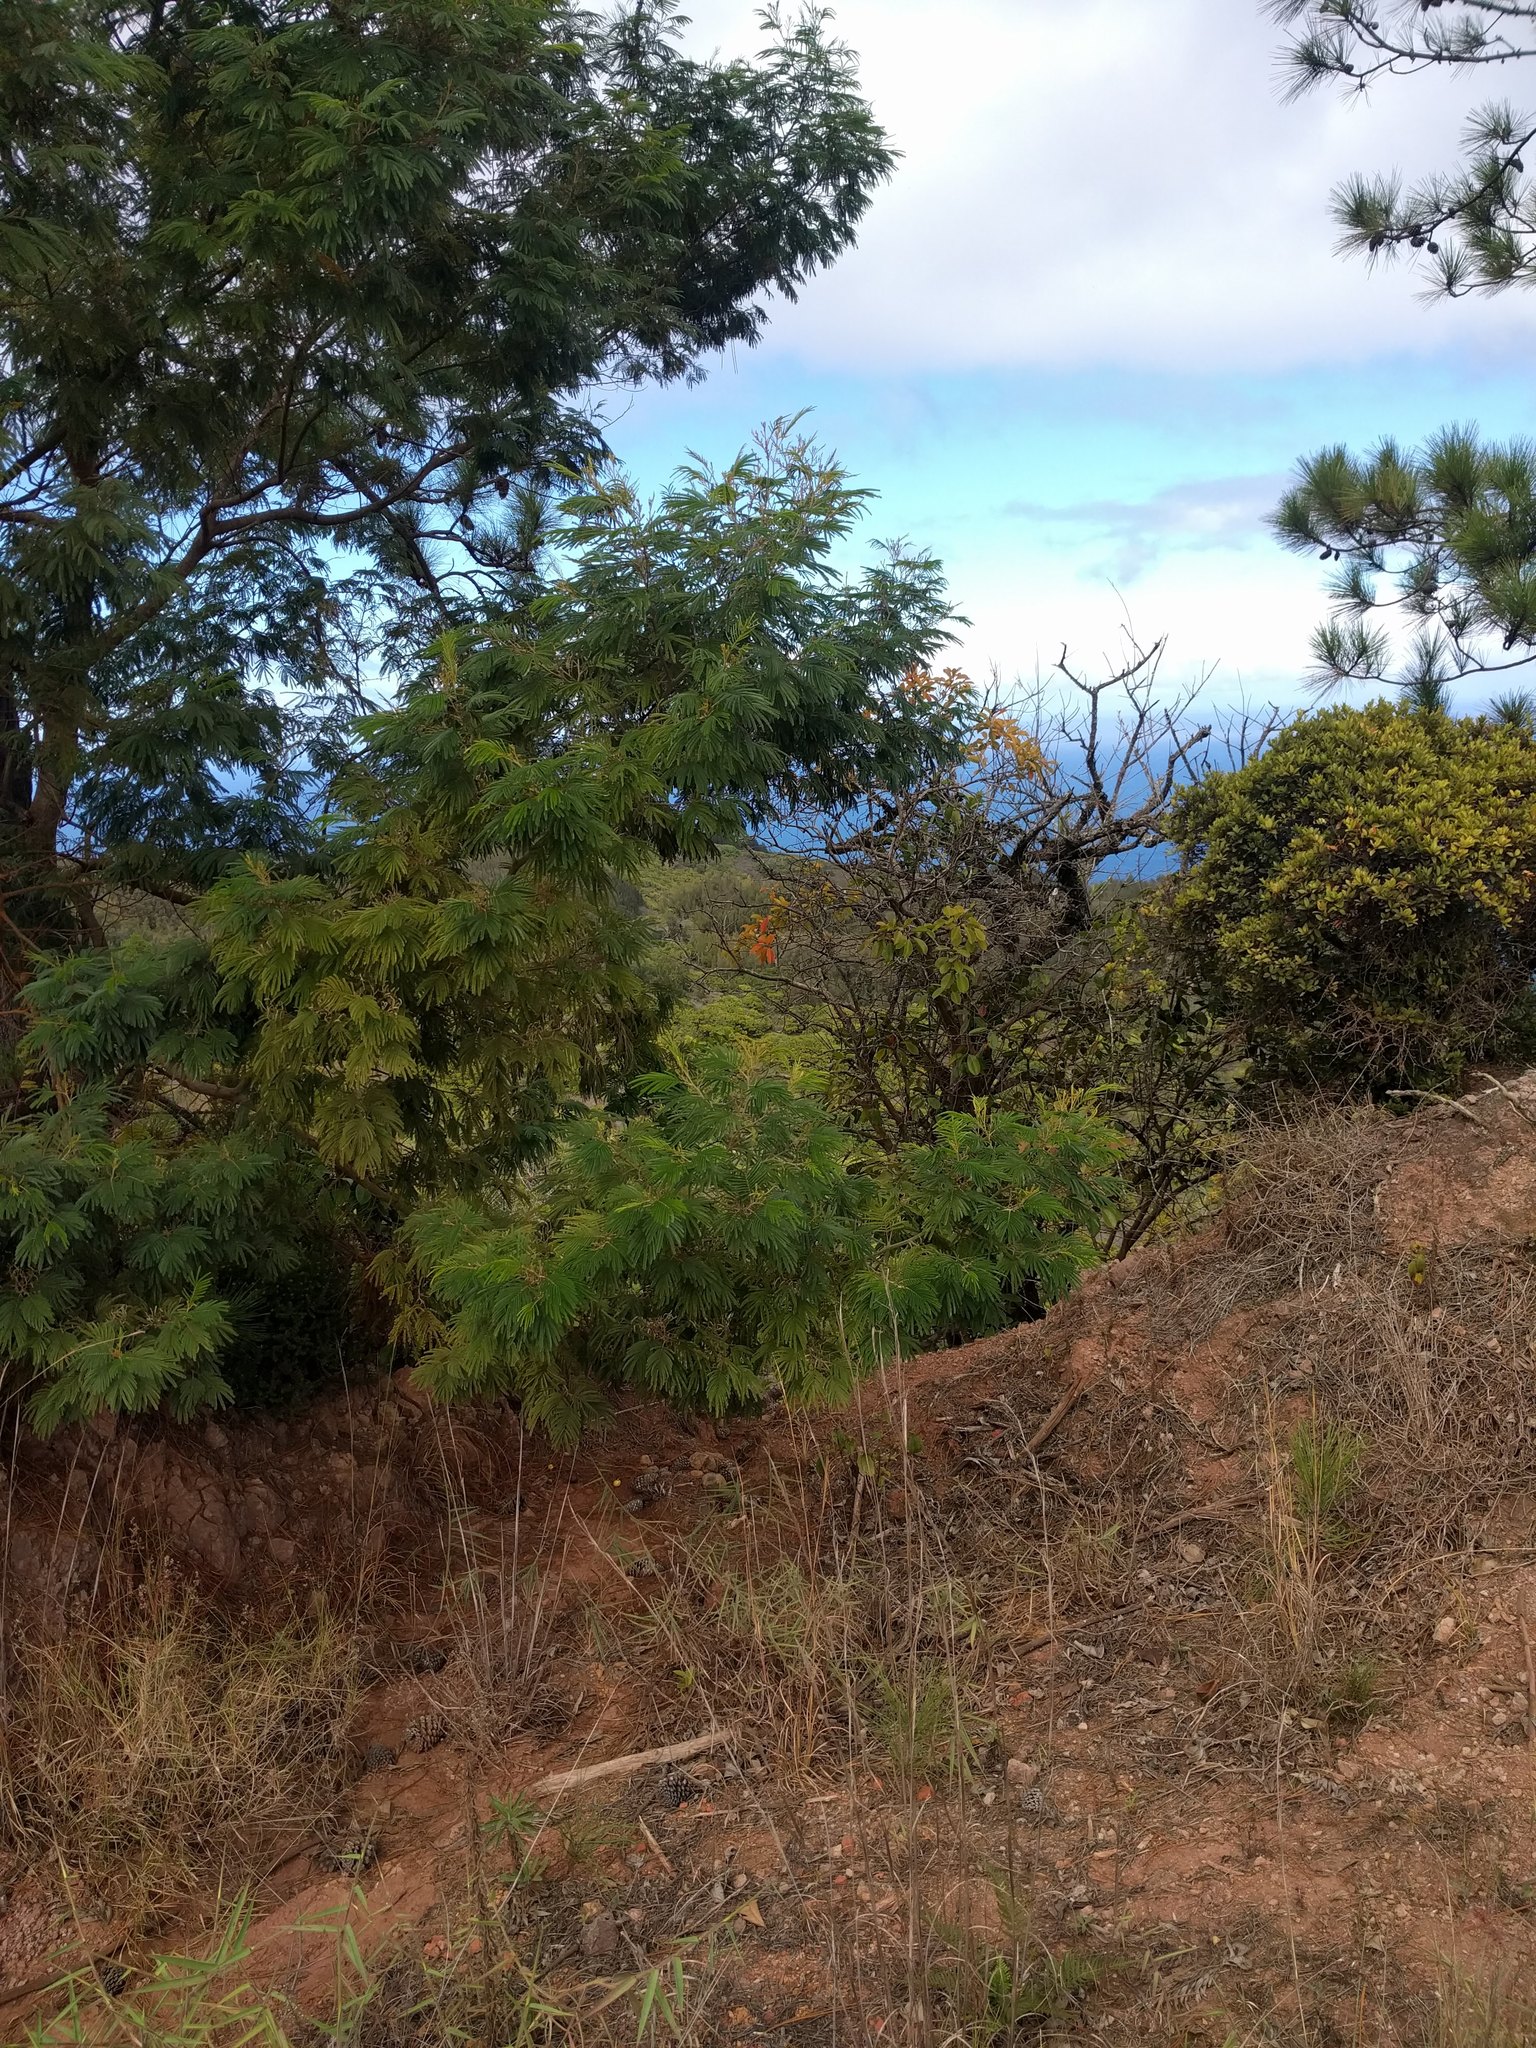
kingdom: Plantae
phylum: Tracheophyta
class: Magnoliopsida
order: Fabales
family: Fabaceae
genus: Acacia
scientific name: Acacia mearnsii
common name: Black wattle
